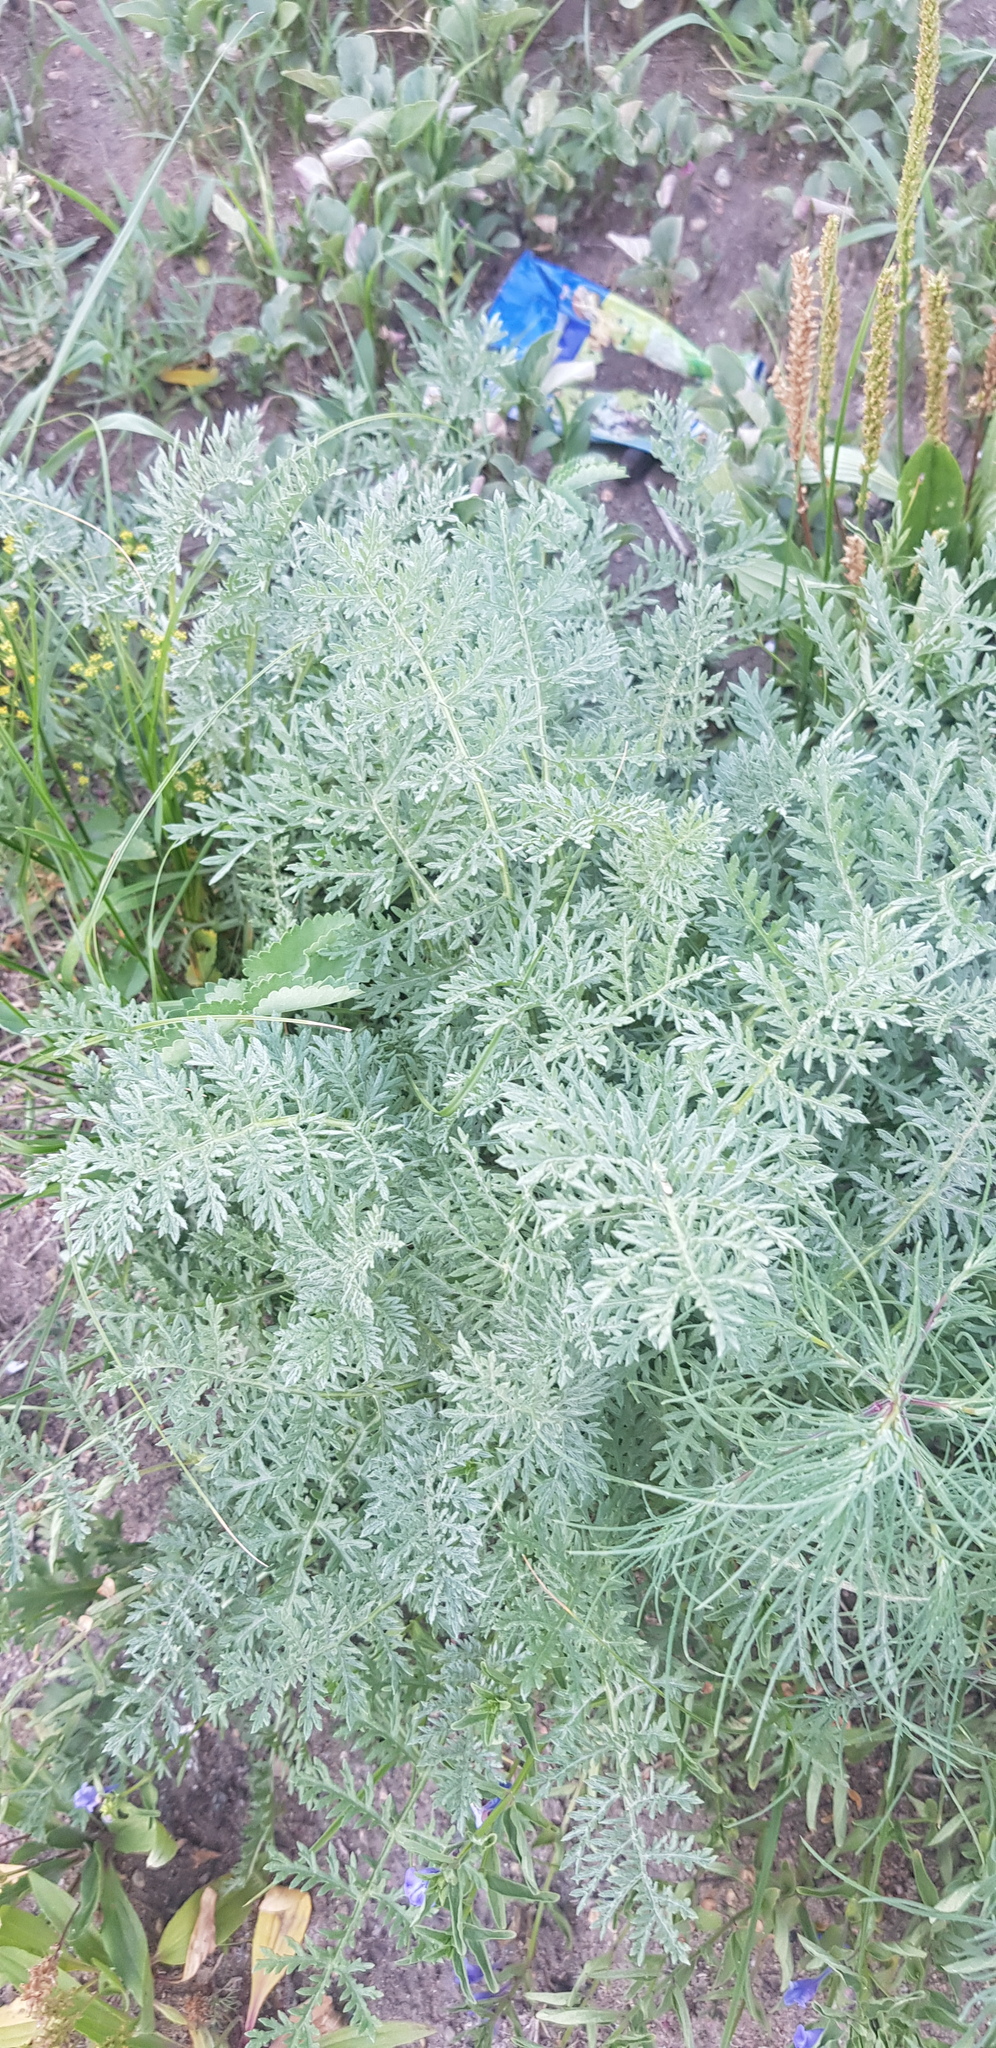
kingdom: Plantae
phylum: Tracheophyta
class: Magnoliopsida
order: Asterales
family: Asteraceae
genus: Artemisia
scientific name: Artemisia gmelinii
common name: Gmelin's wormwood
